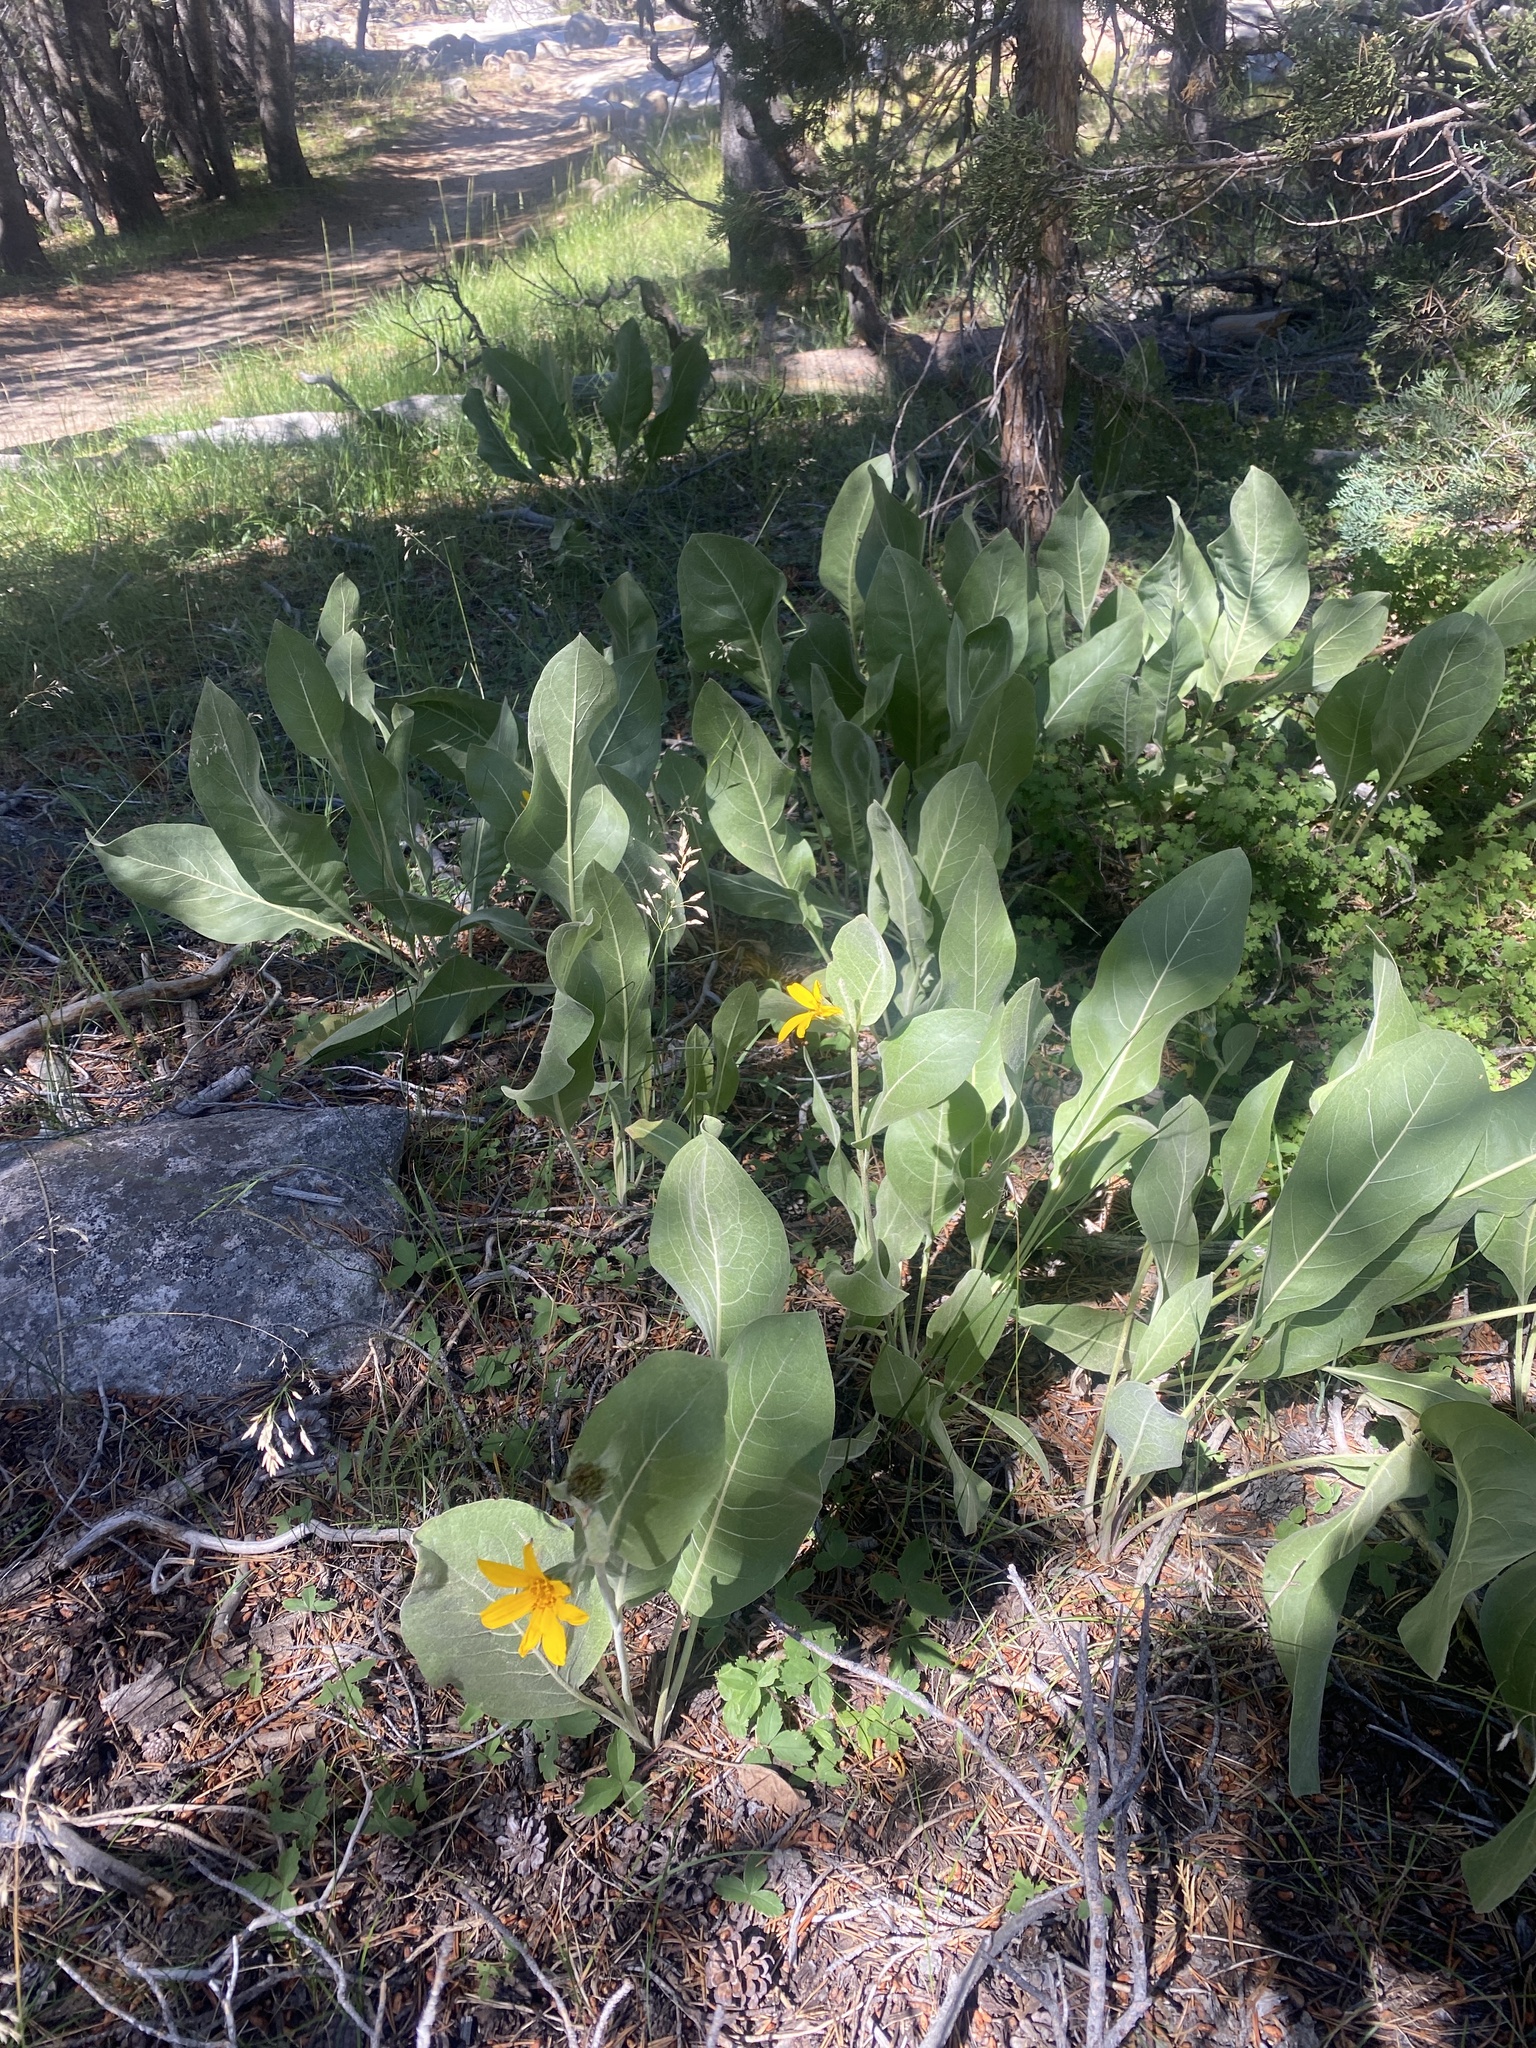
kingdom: Plantae
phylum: Tracheophyta
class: Magnoliopsida
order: Asterales
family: Asteraceae
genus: Wyethia
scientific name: Wyethia mollis
